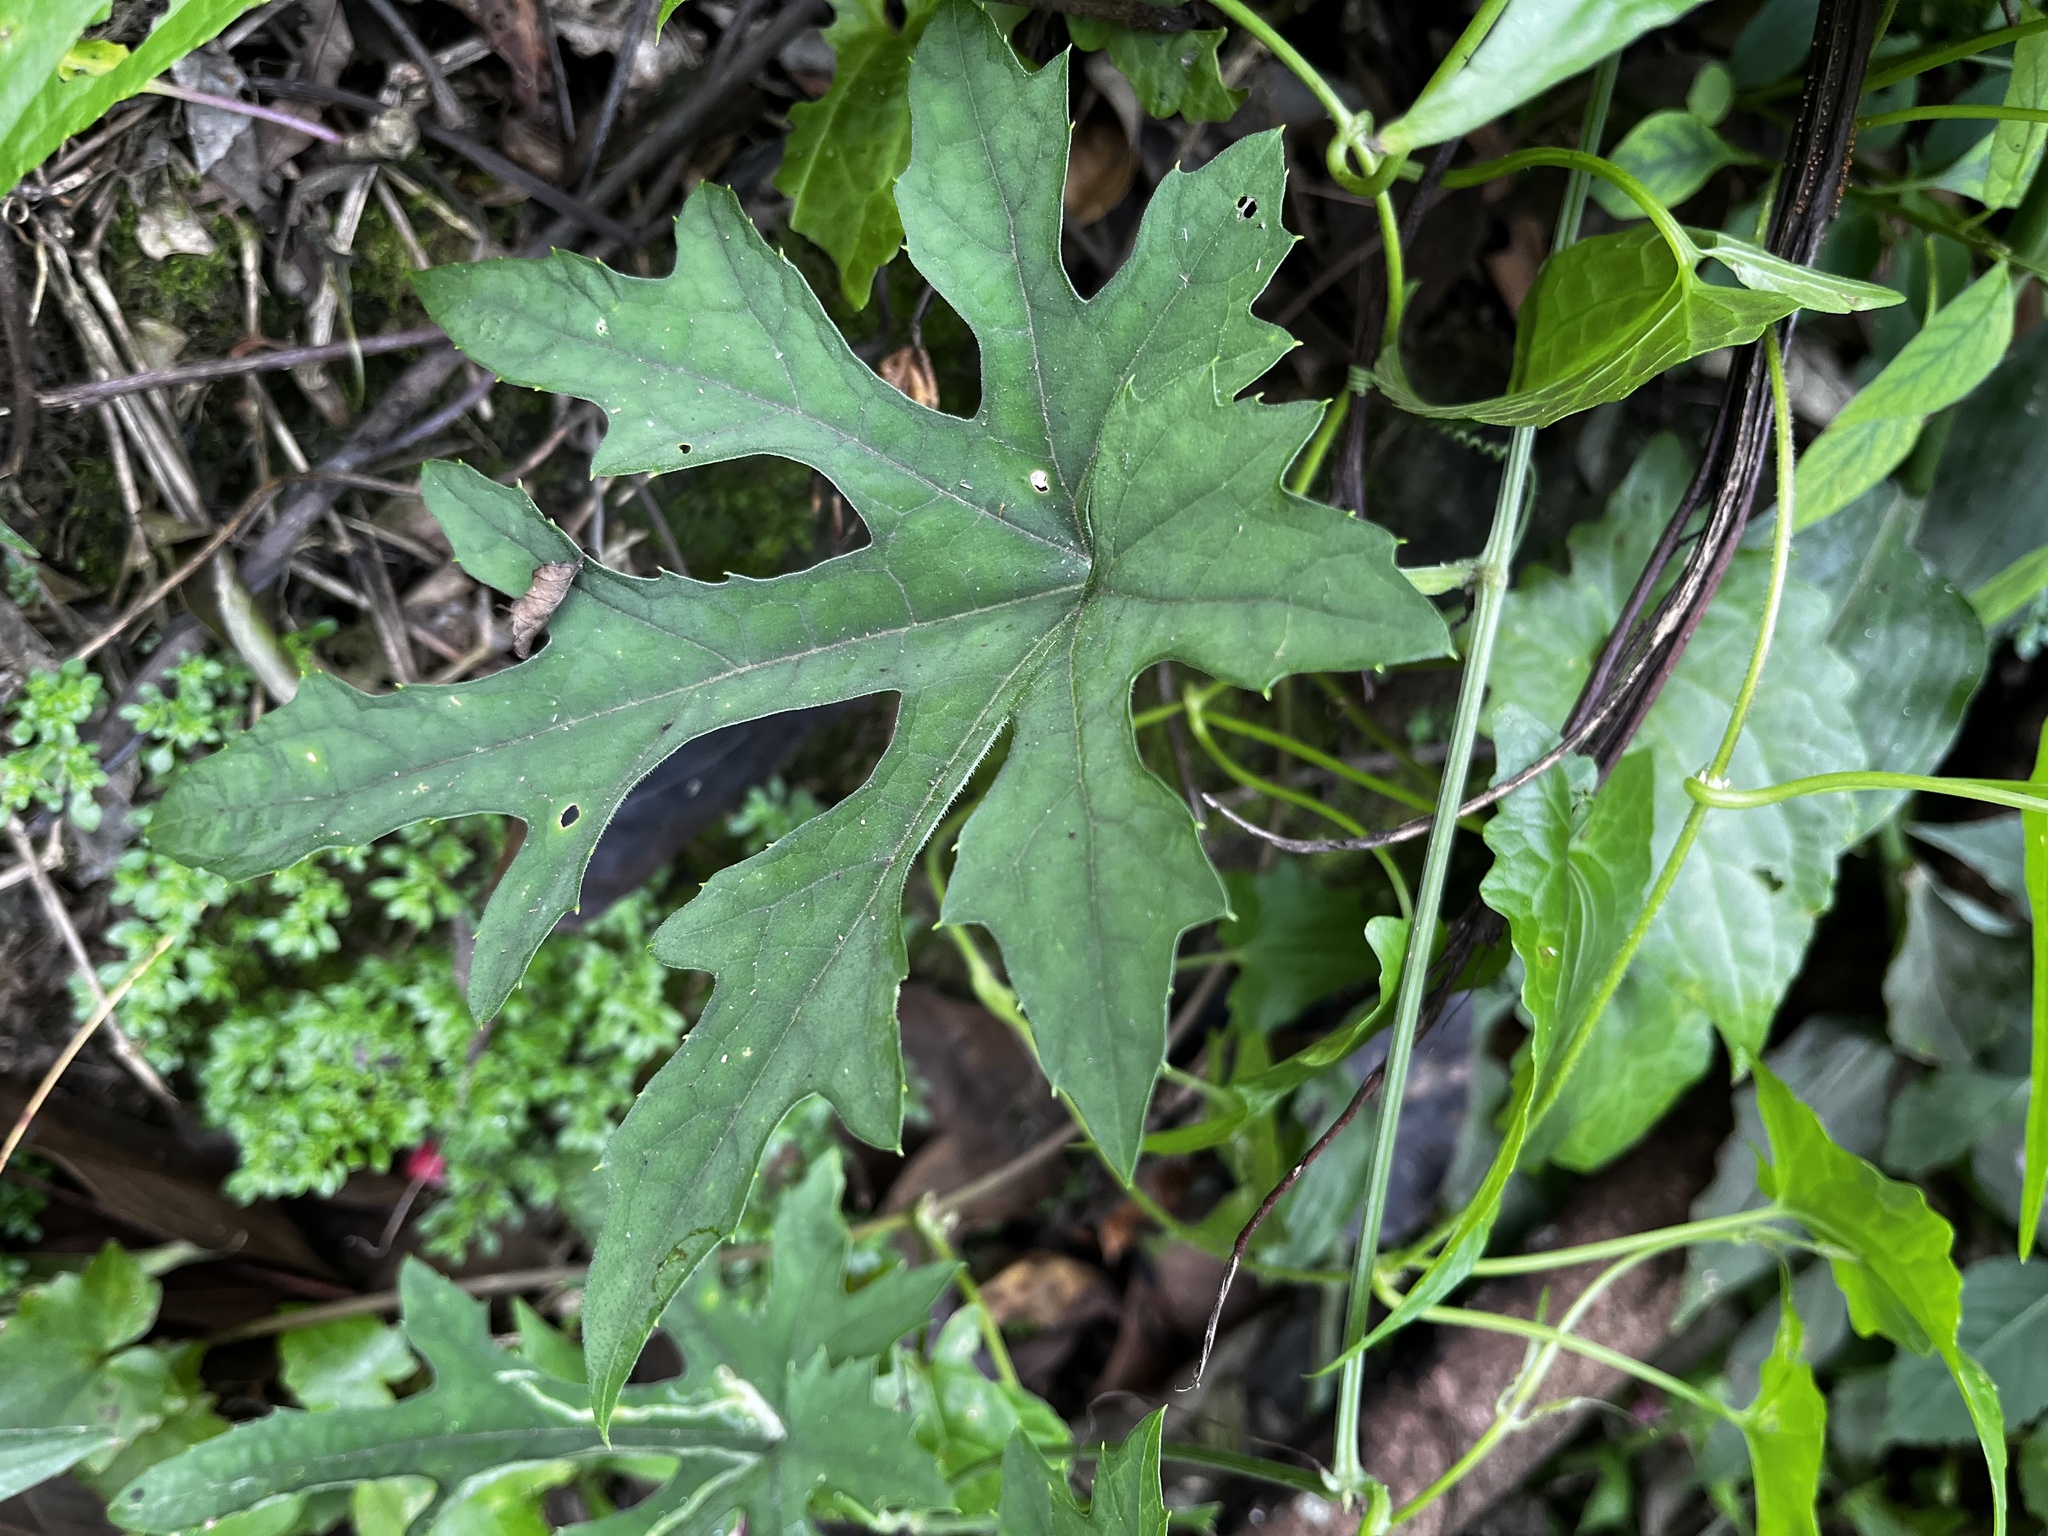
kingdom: Plantae
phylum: Tracheophyta
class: Magnoliopsida
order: Cucurbitales
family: Cucurbitaceae
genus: Trichosanthes
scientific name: Trichosanthes laceribractea
